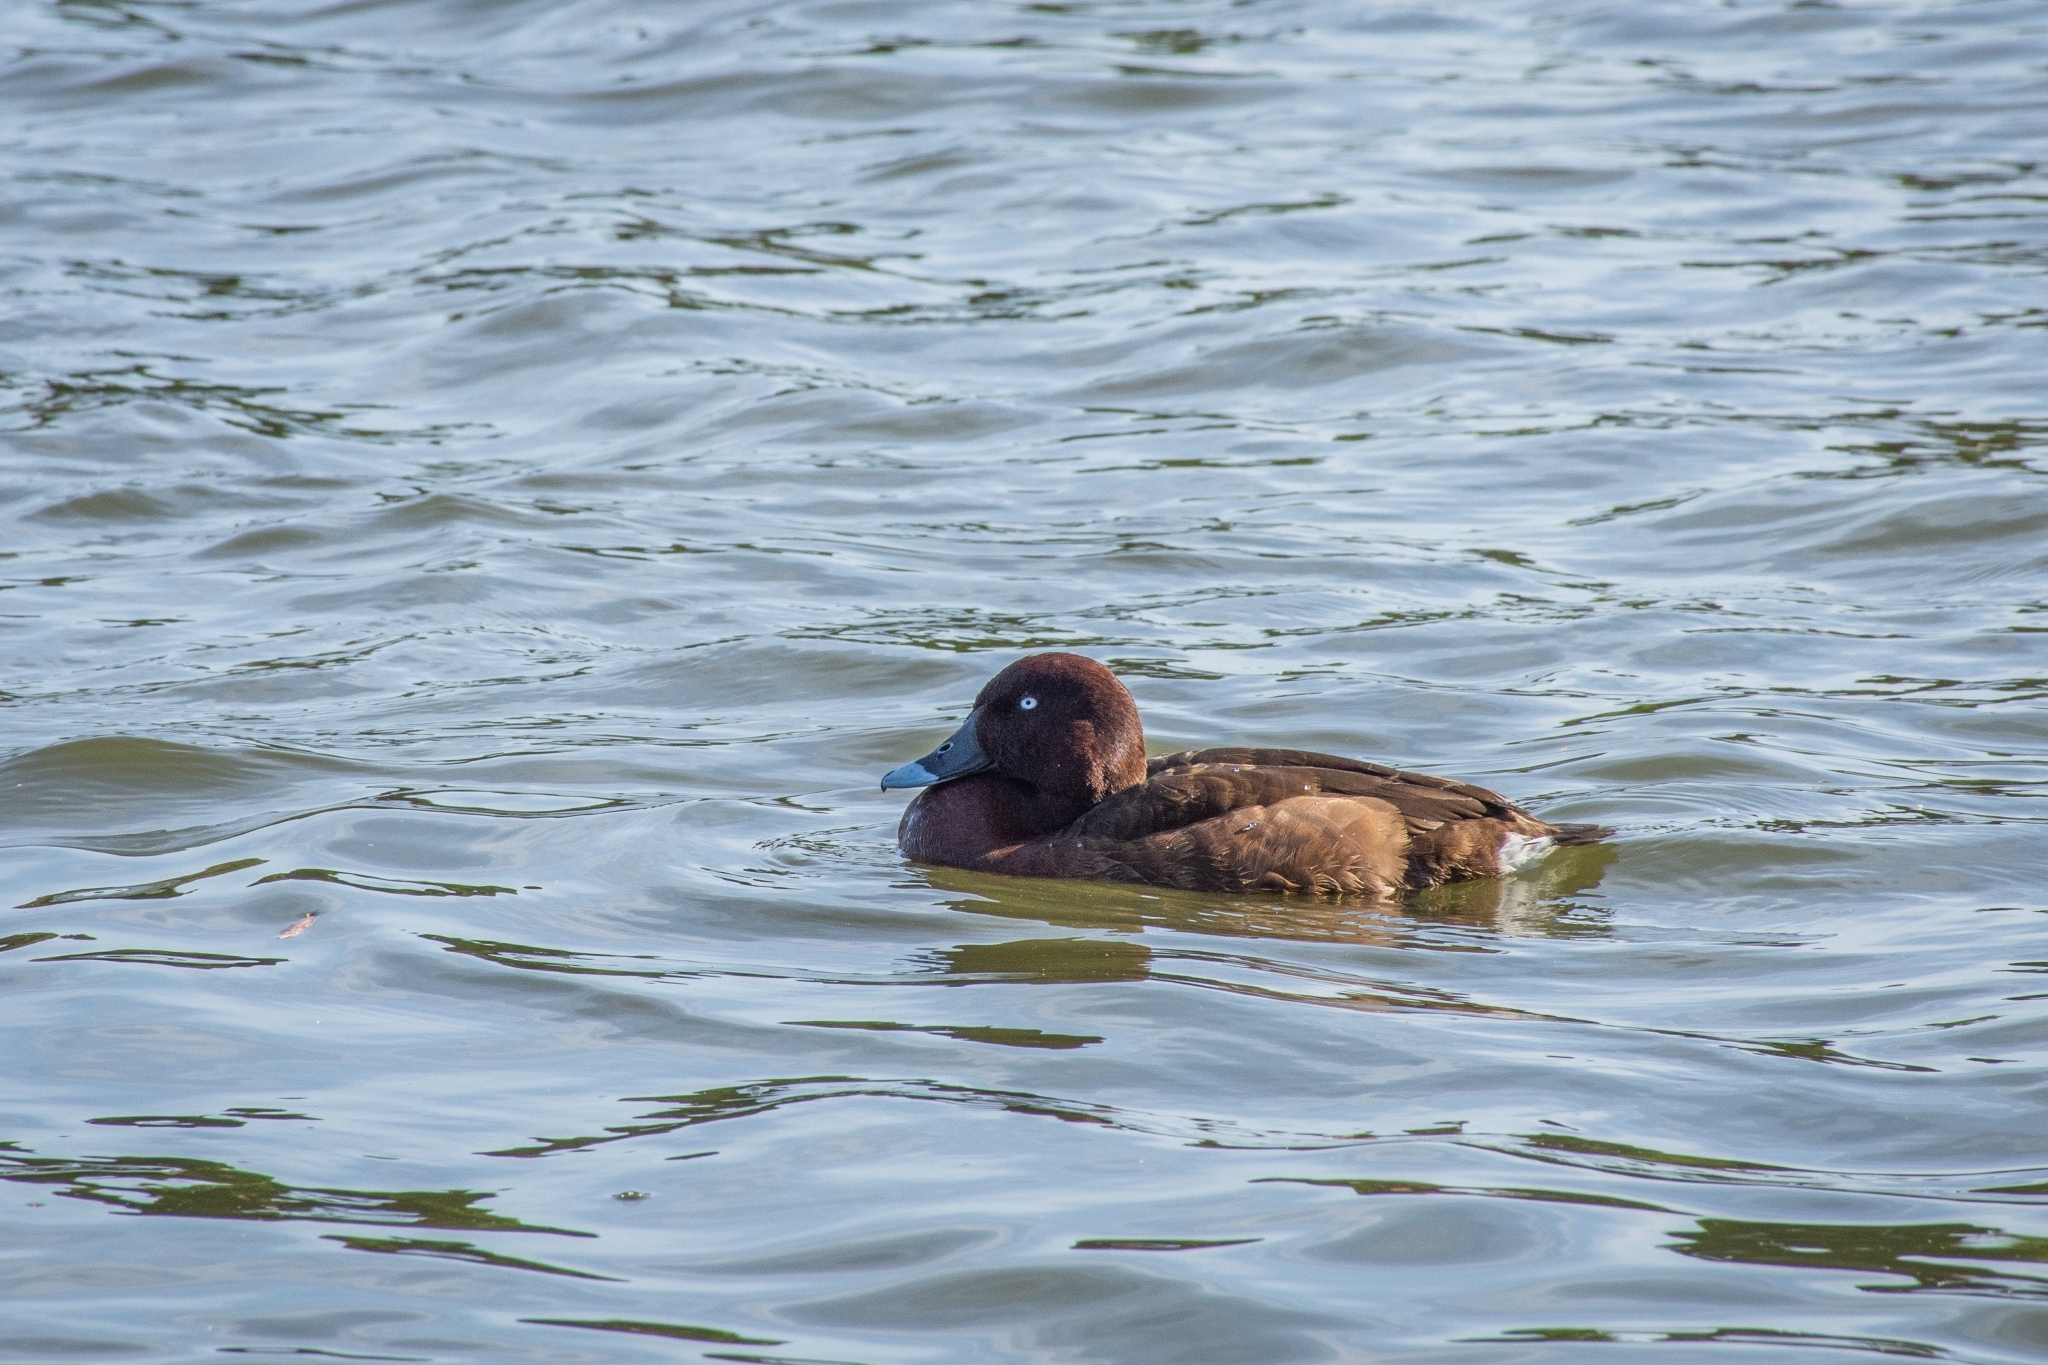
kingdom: Animalia
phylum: Chordata
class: Aves
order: Anseriformes
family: Anatidae
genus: Aythya
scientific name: Aythya australis
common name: Hardhead
